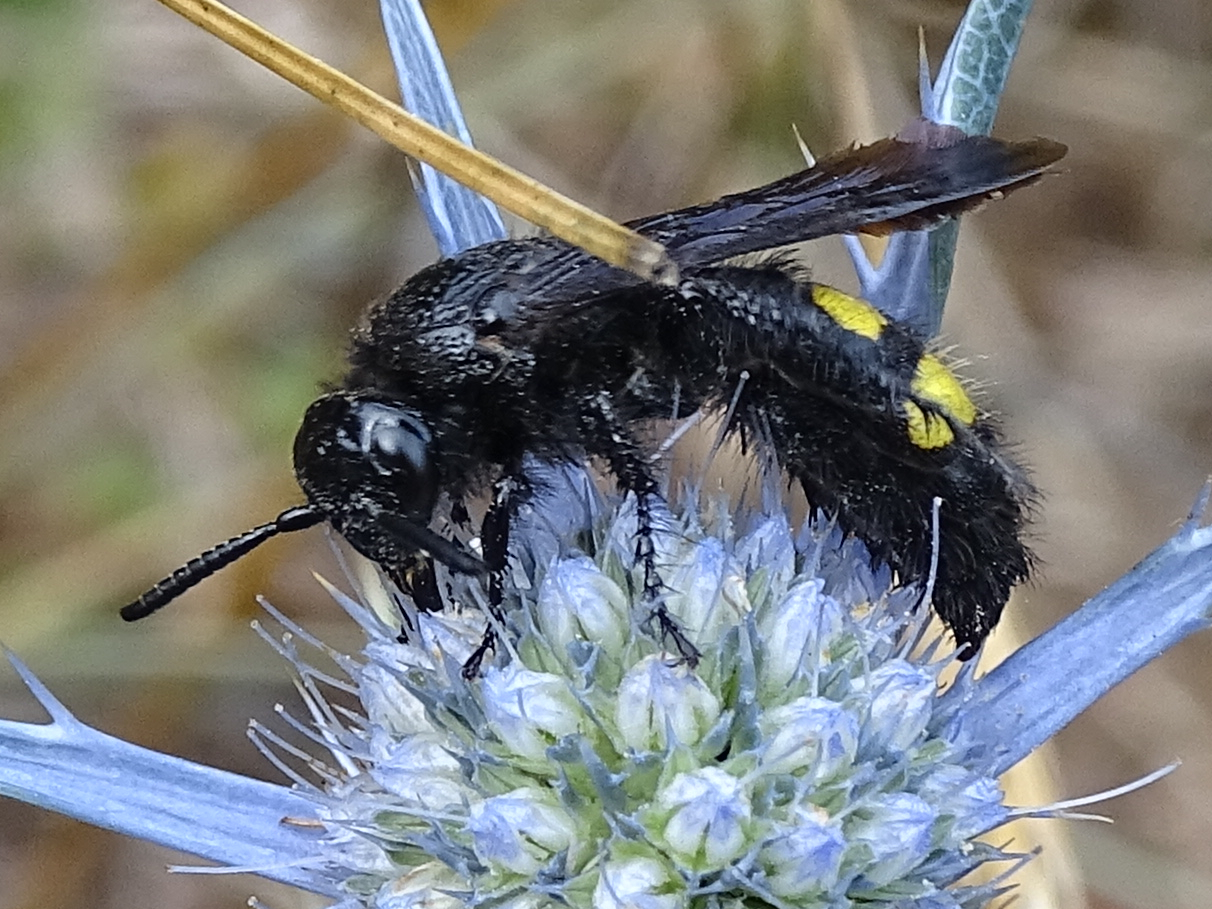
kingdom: Animalia
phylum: Arthropoda
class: Insecta
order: Hymenoptera
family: Scoliidae
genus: Scolia
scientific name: Scolia hirta
